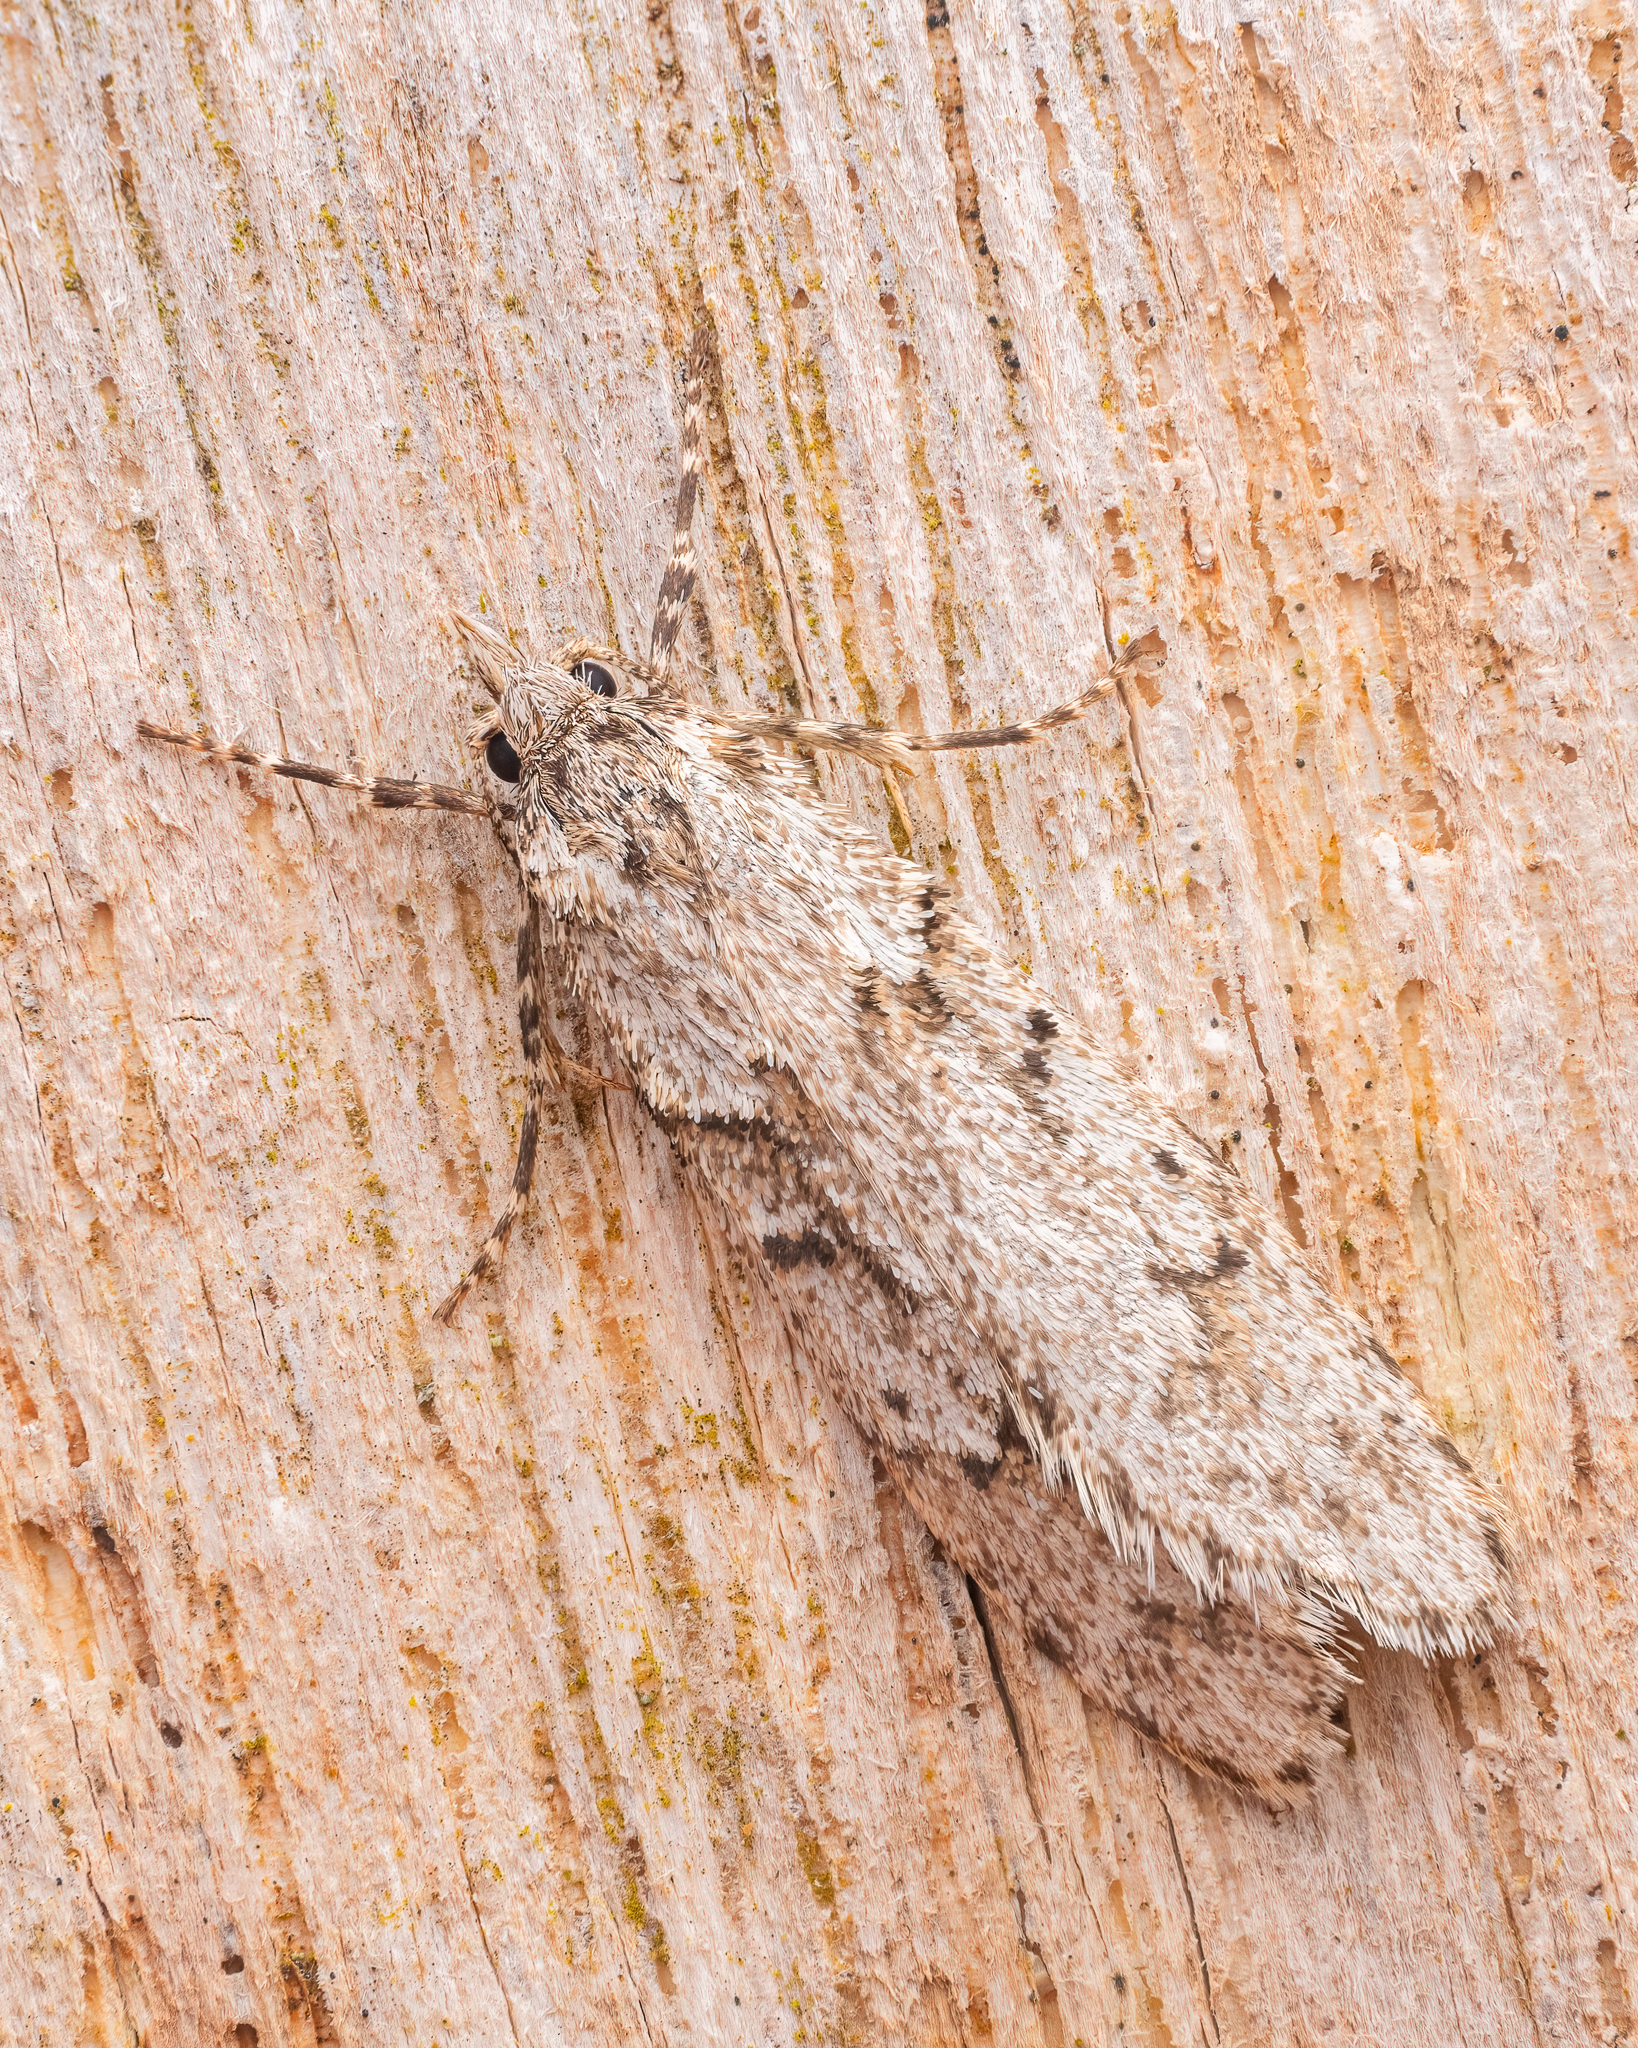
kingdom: Animalia
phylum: Arthropoda
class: Insecta
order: Lepidoptera
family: Lypusidae
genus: Diurnea
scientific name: Diurnea fagella
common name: March tubic
